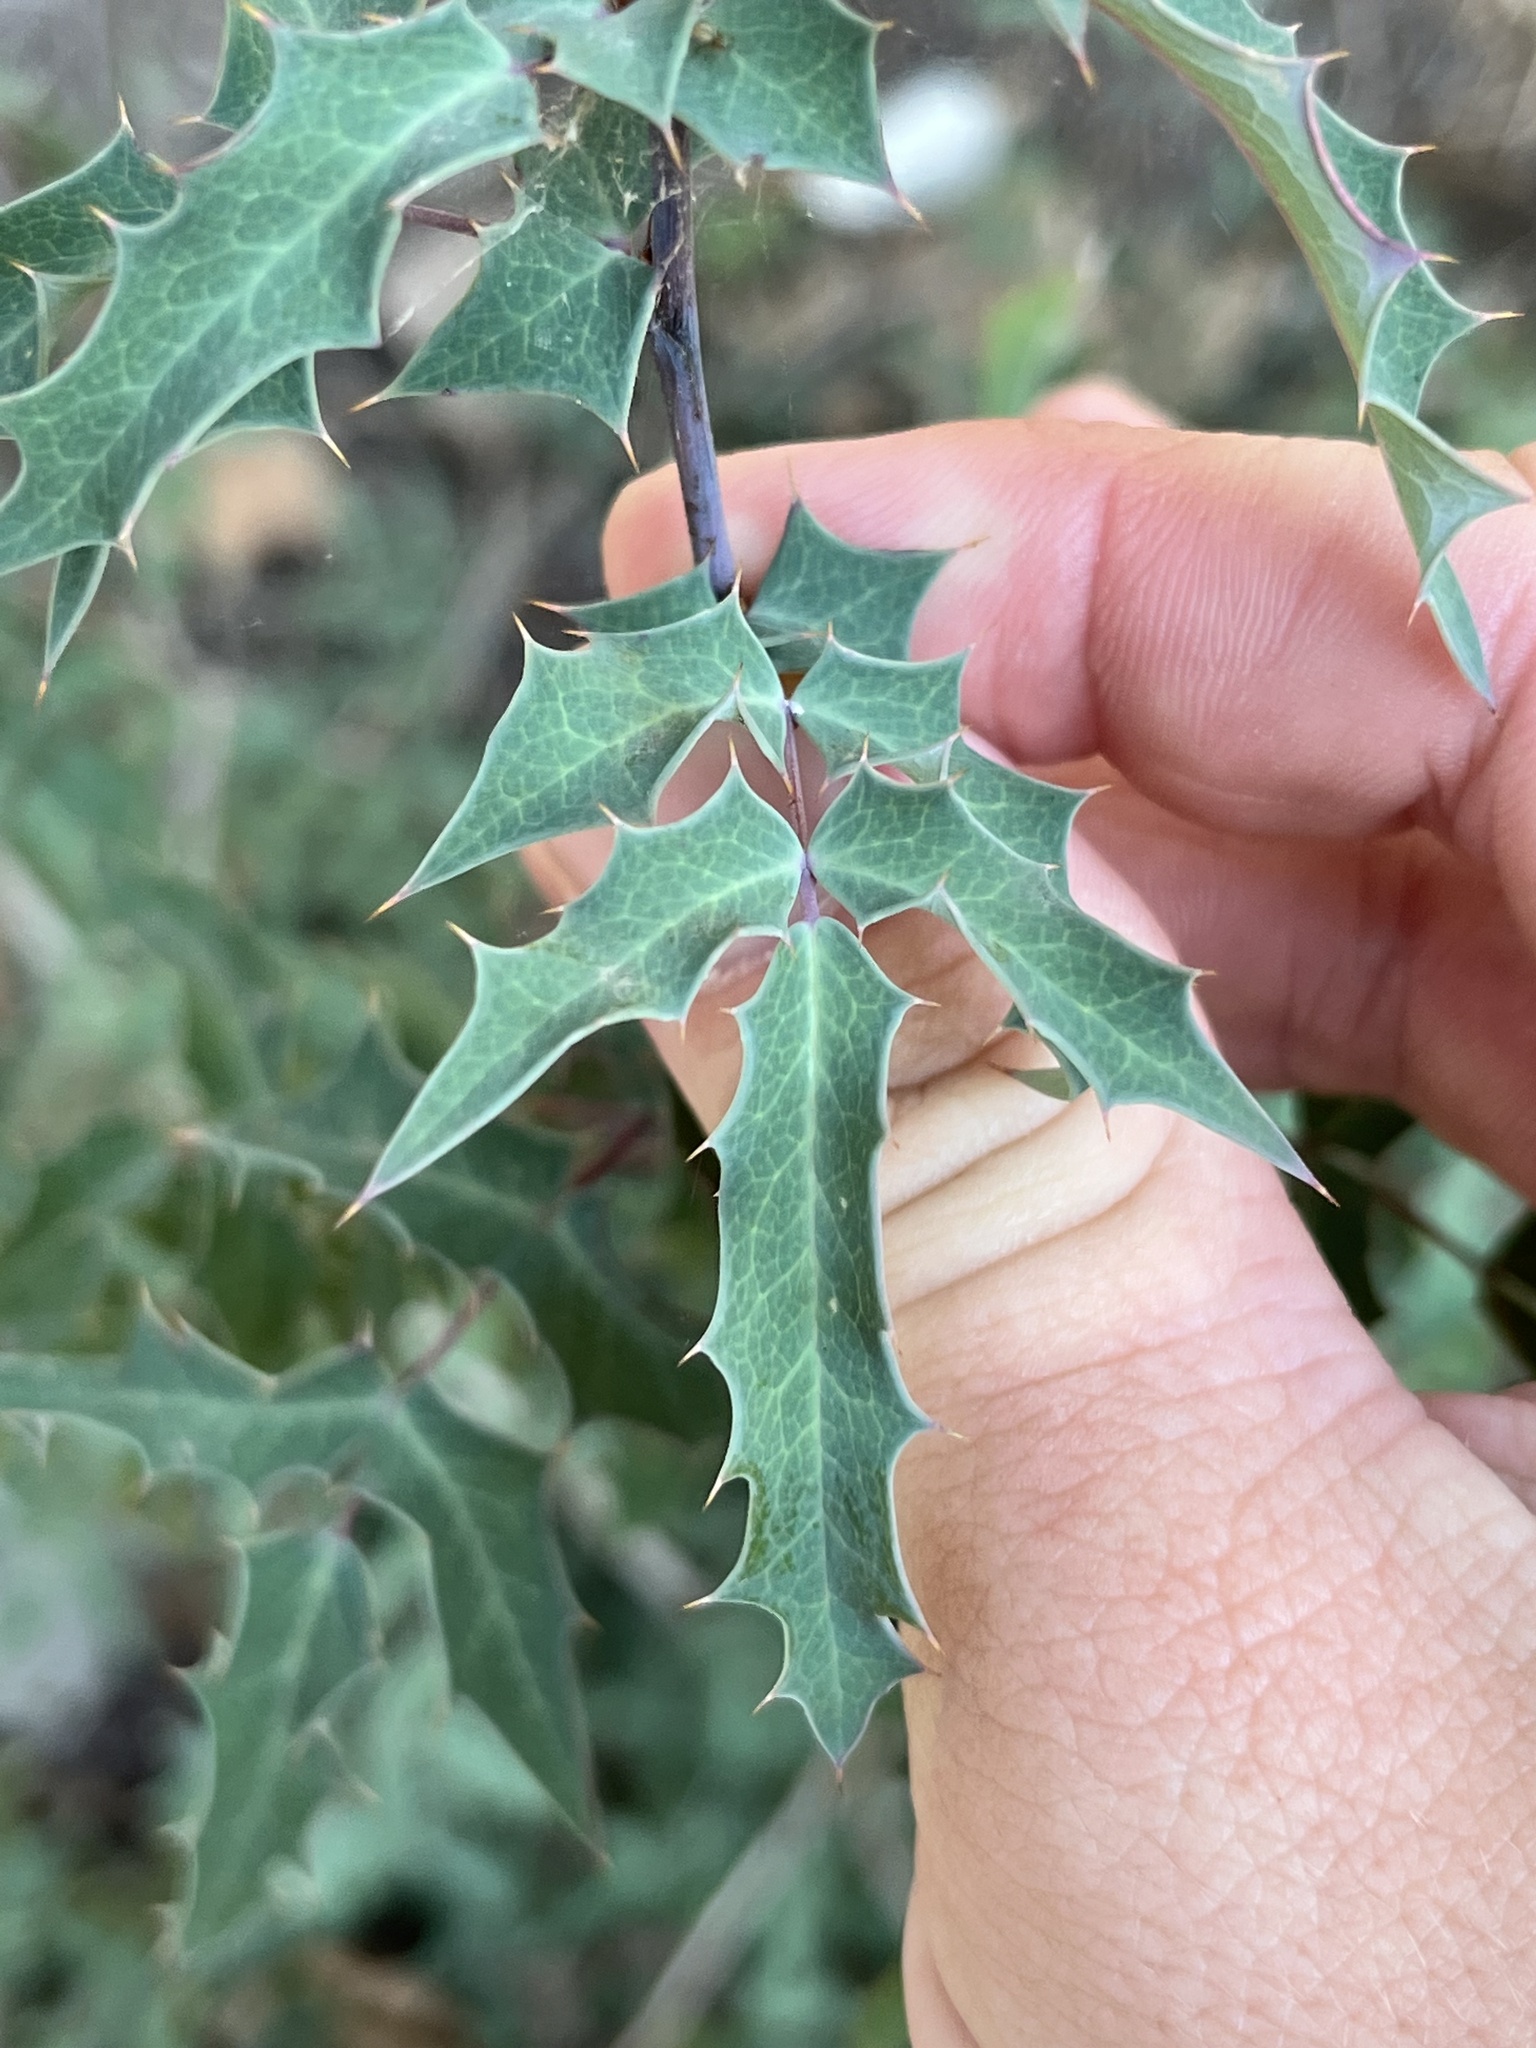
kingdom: Plantae
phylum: Tracheophyta
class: Magnoliopsida
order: Ranunculales
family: Berberidaceae
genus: Berberis
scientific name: Berberis swaseyi
